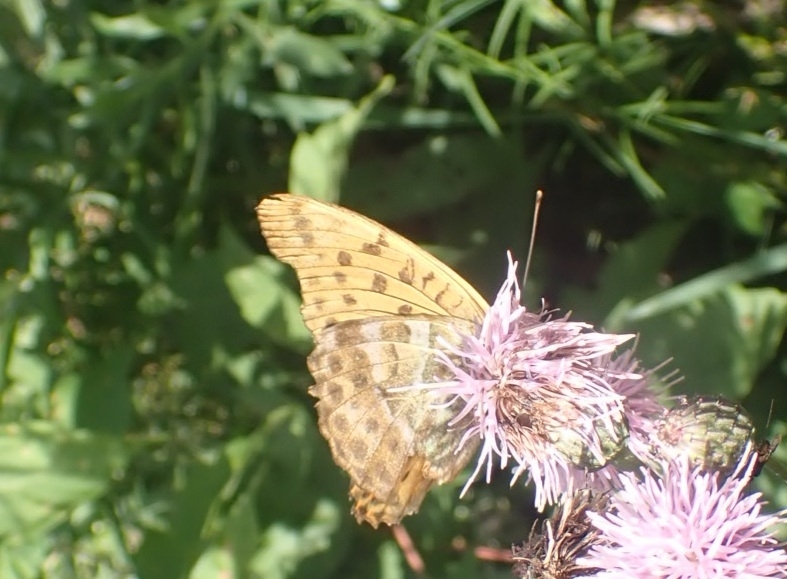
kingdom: Animalia
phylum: Arthropoda
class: Insecta
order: Lepidoptera
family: Nymphalidae
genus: Argynnis
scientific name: Argynnis paphia
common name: Silver-washed fritillary
